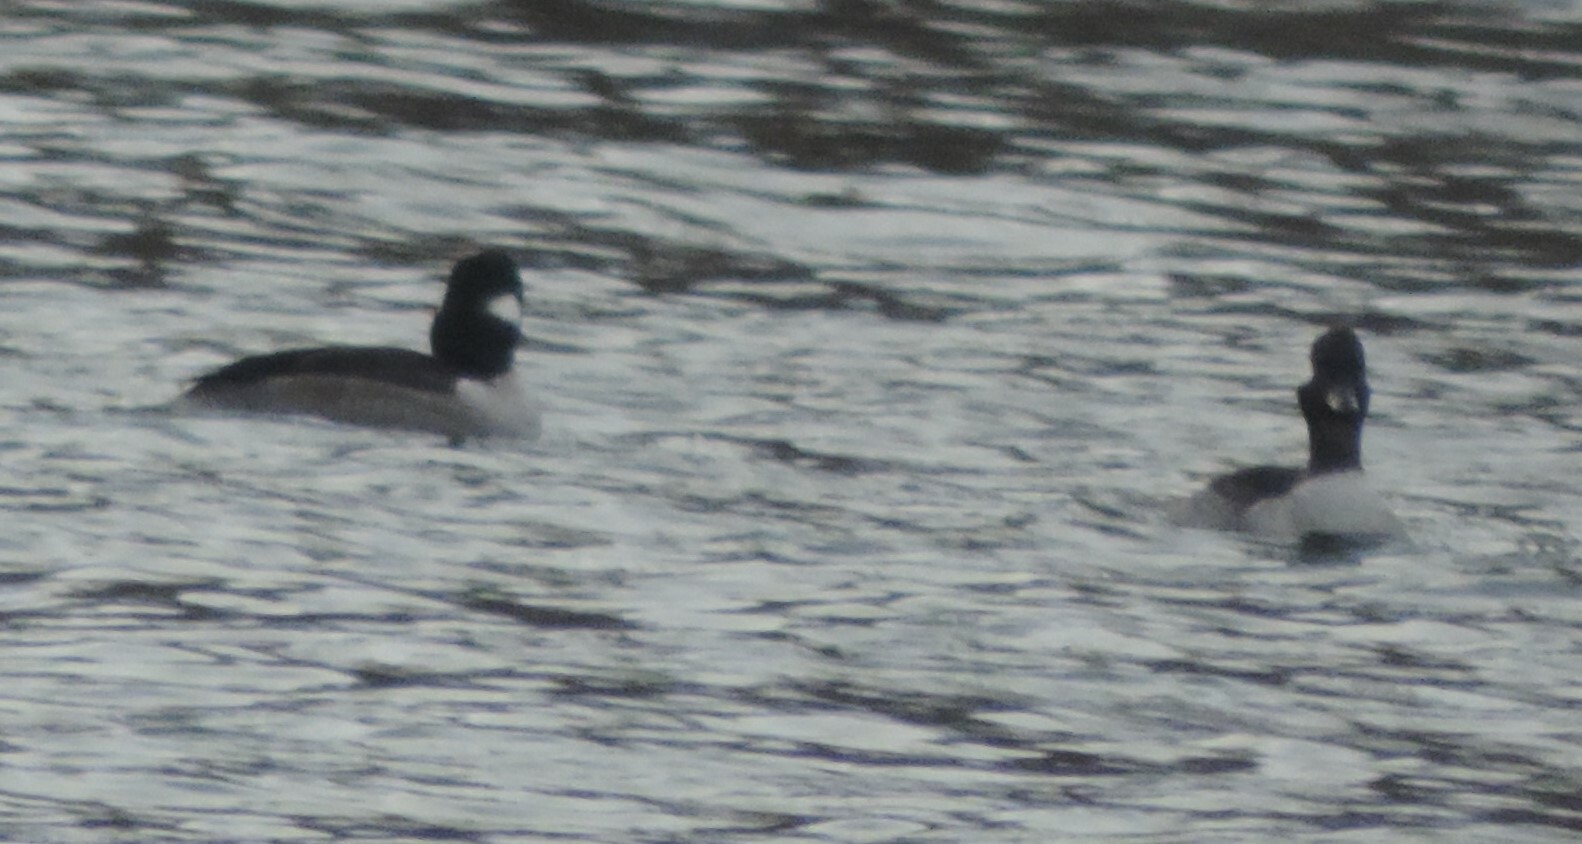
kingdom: Animalia
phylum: Chordata
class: Aves
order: Anseriformes
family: Anatidae
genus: Bucephala
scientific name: Bucephala albeola
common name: Bufflehead
